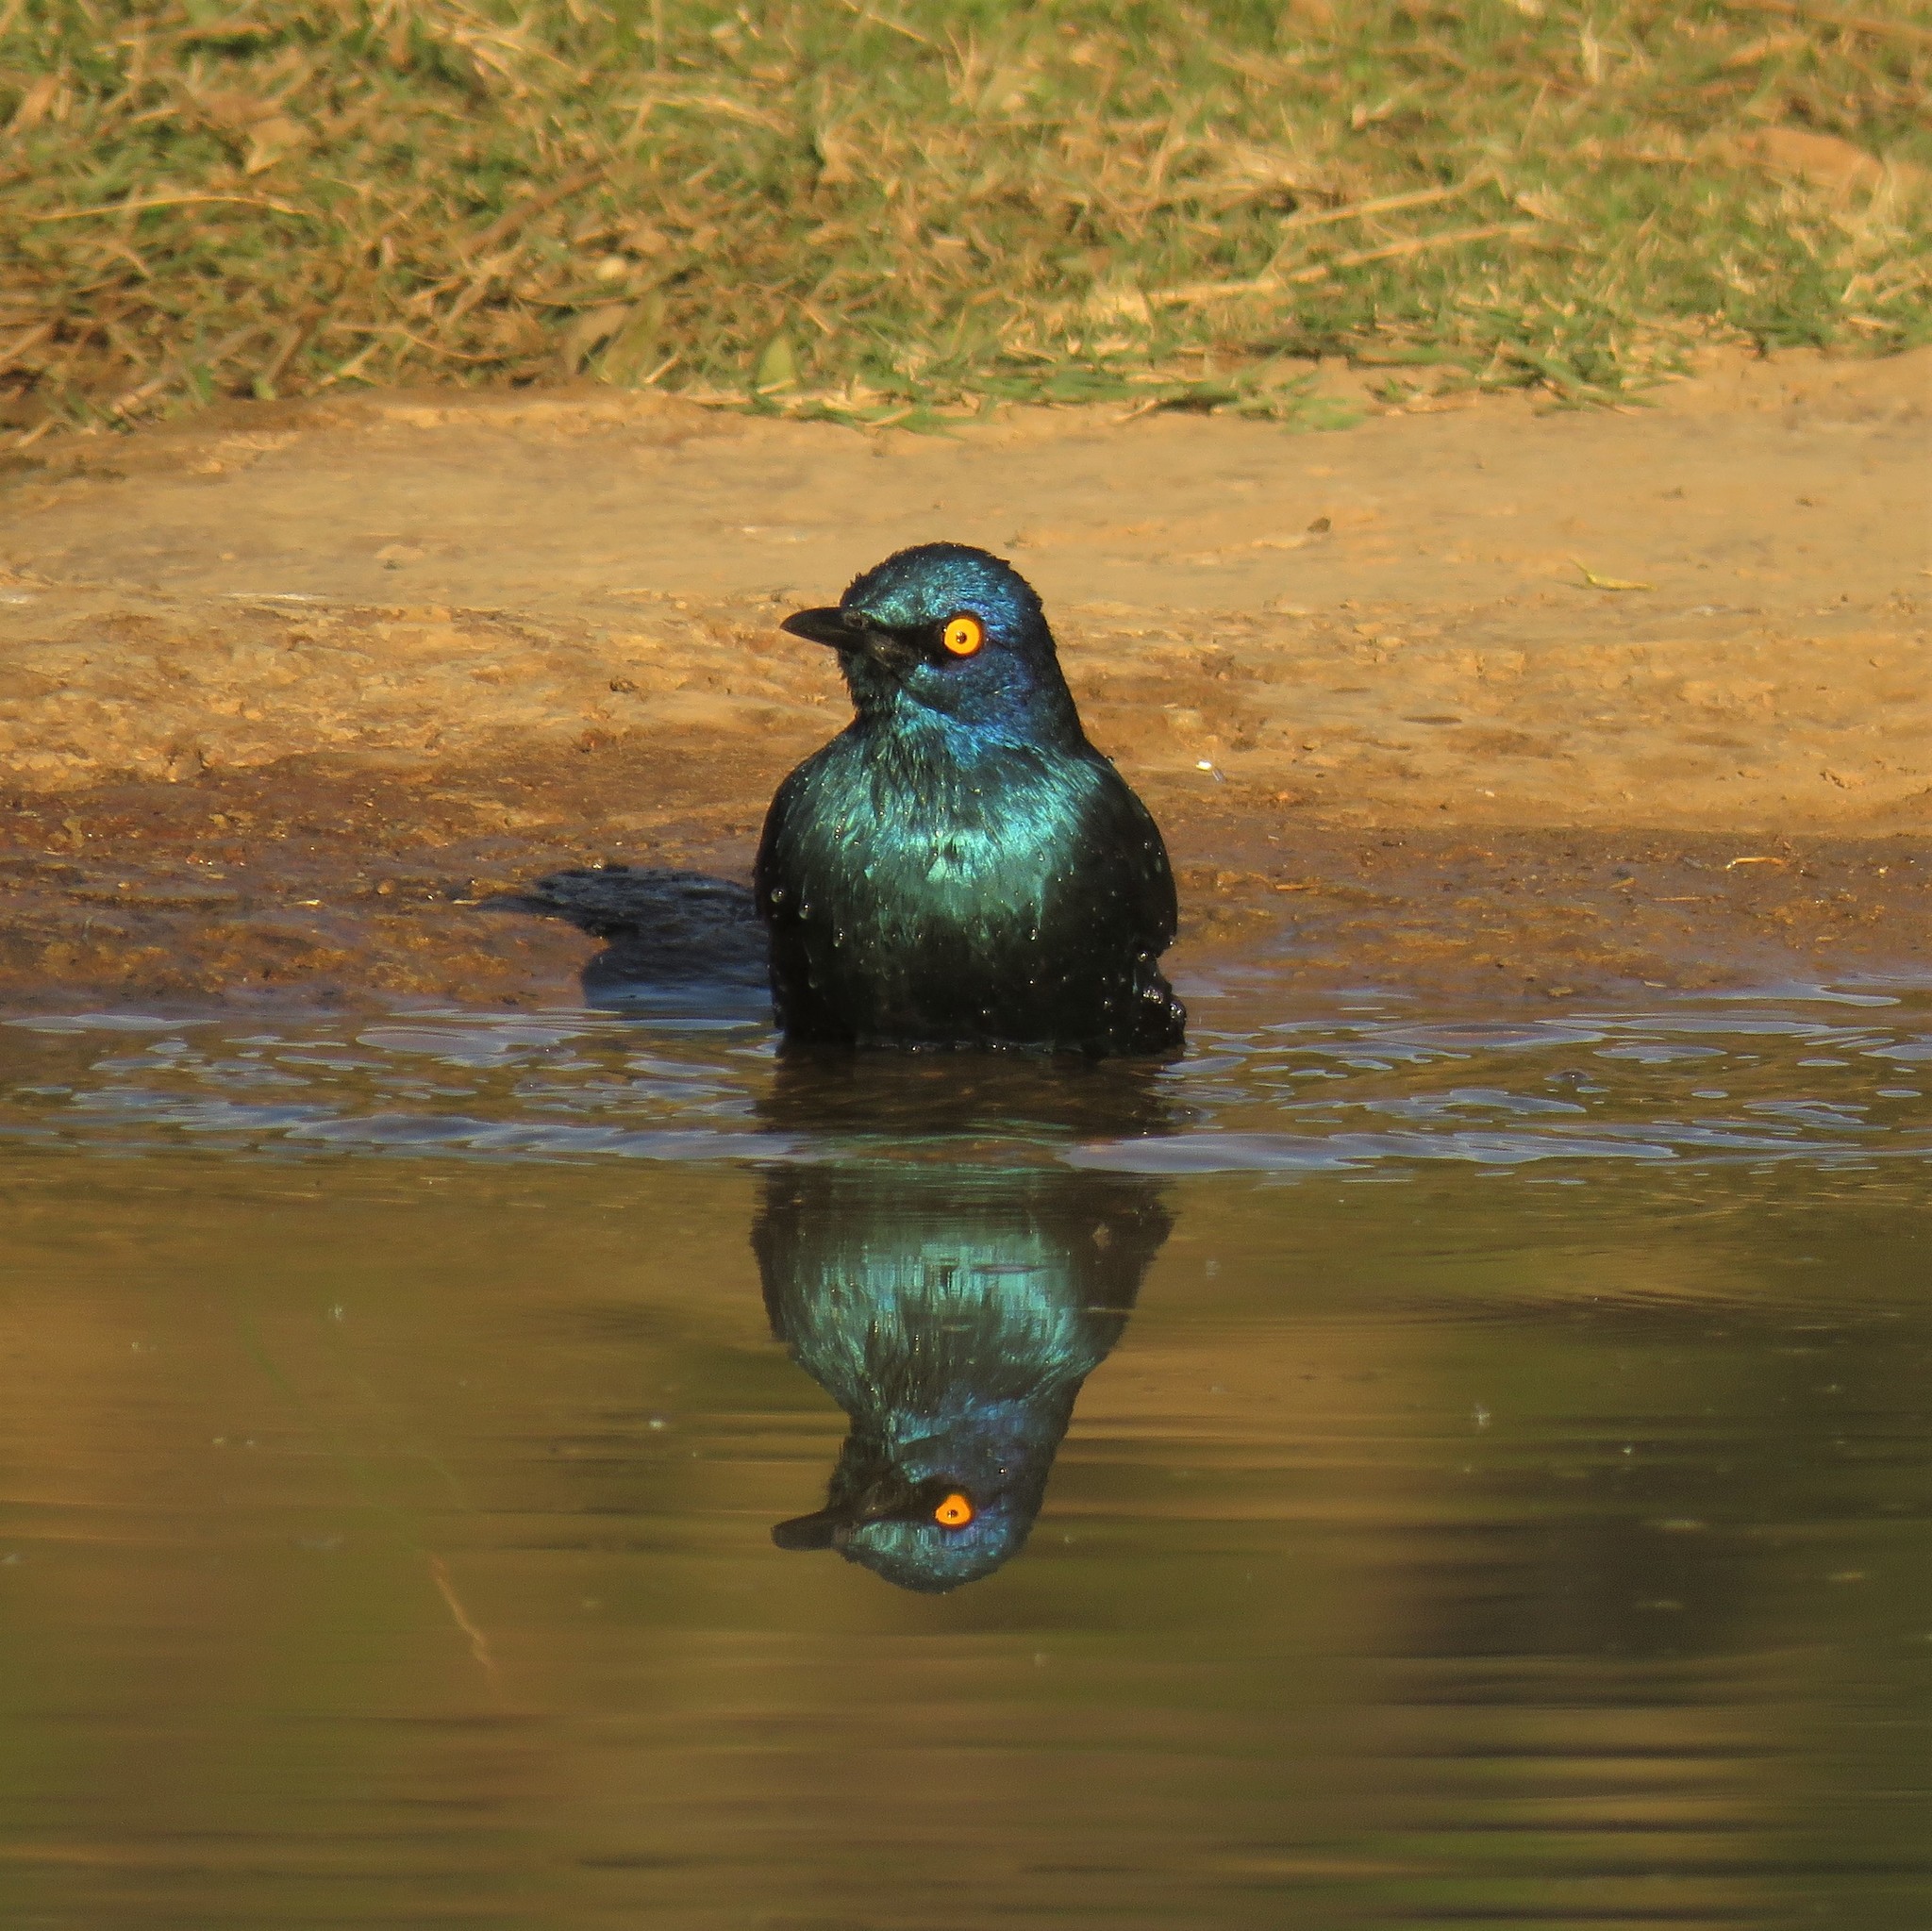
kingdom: Animalia
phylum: Chordata
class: Aves
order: Passeriformes
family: Sturnidae
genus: Lamprotornis
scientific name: Lamprotornis nitens
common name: Cape starling
